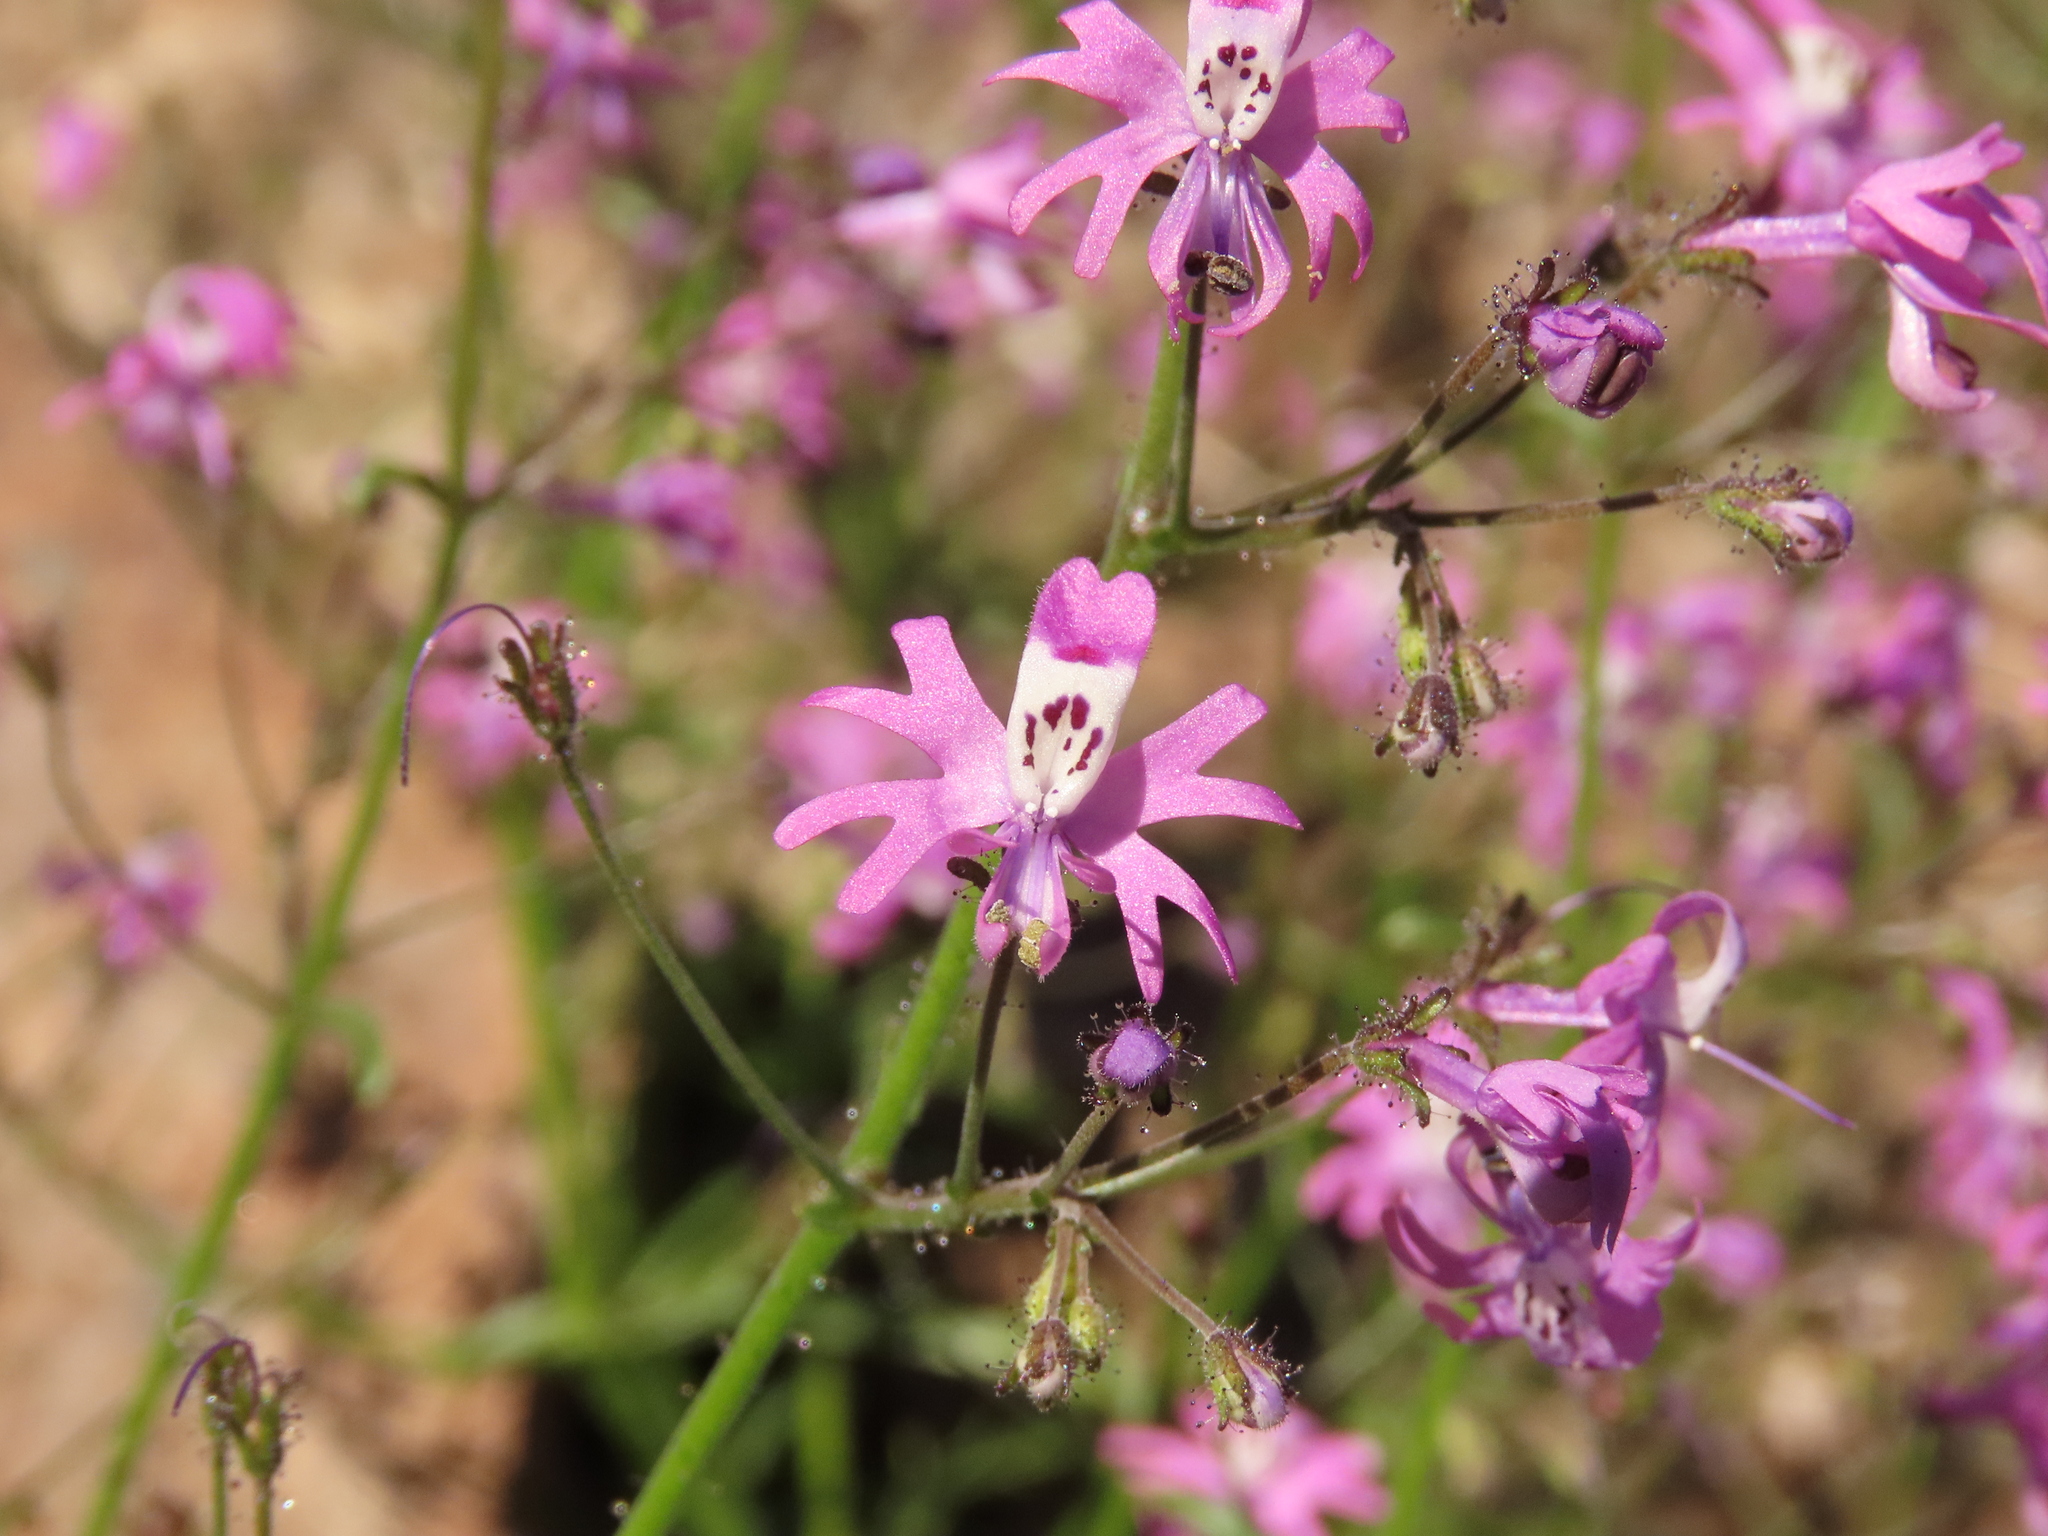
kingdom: Plantae
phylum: Tracheophyta
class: Magnoliopsida
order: Solanales
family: Solanaceae
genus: Schizanthus
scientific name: Schizanthus alpestris
